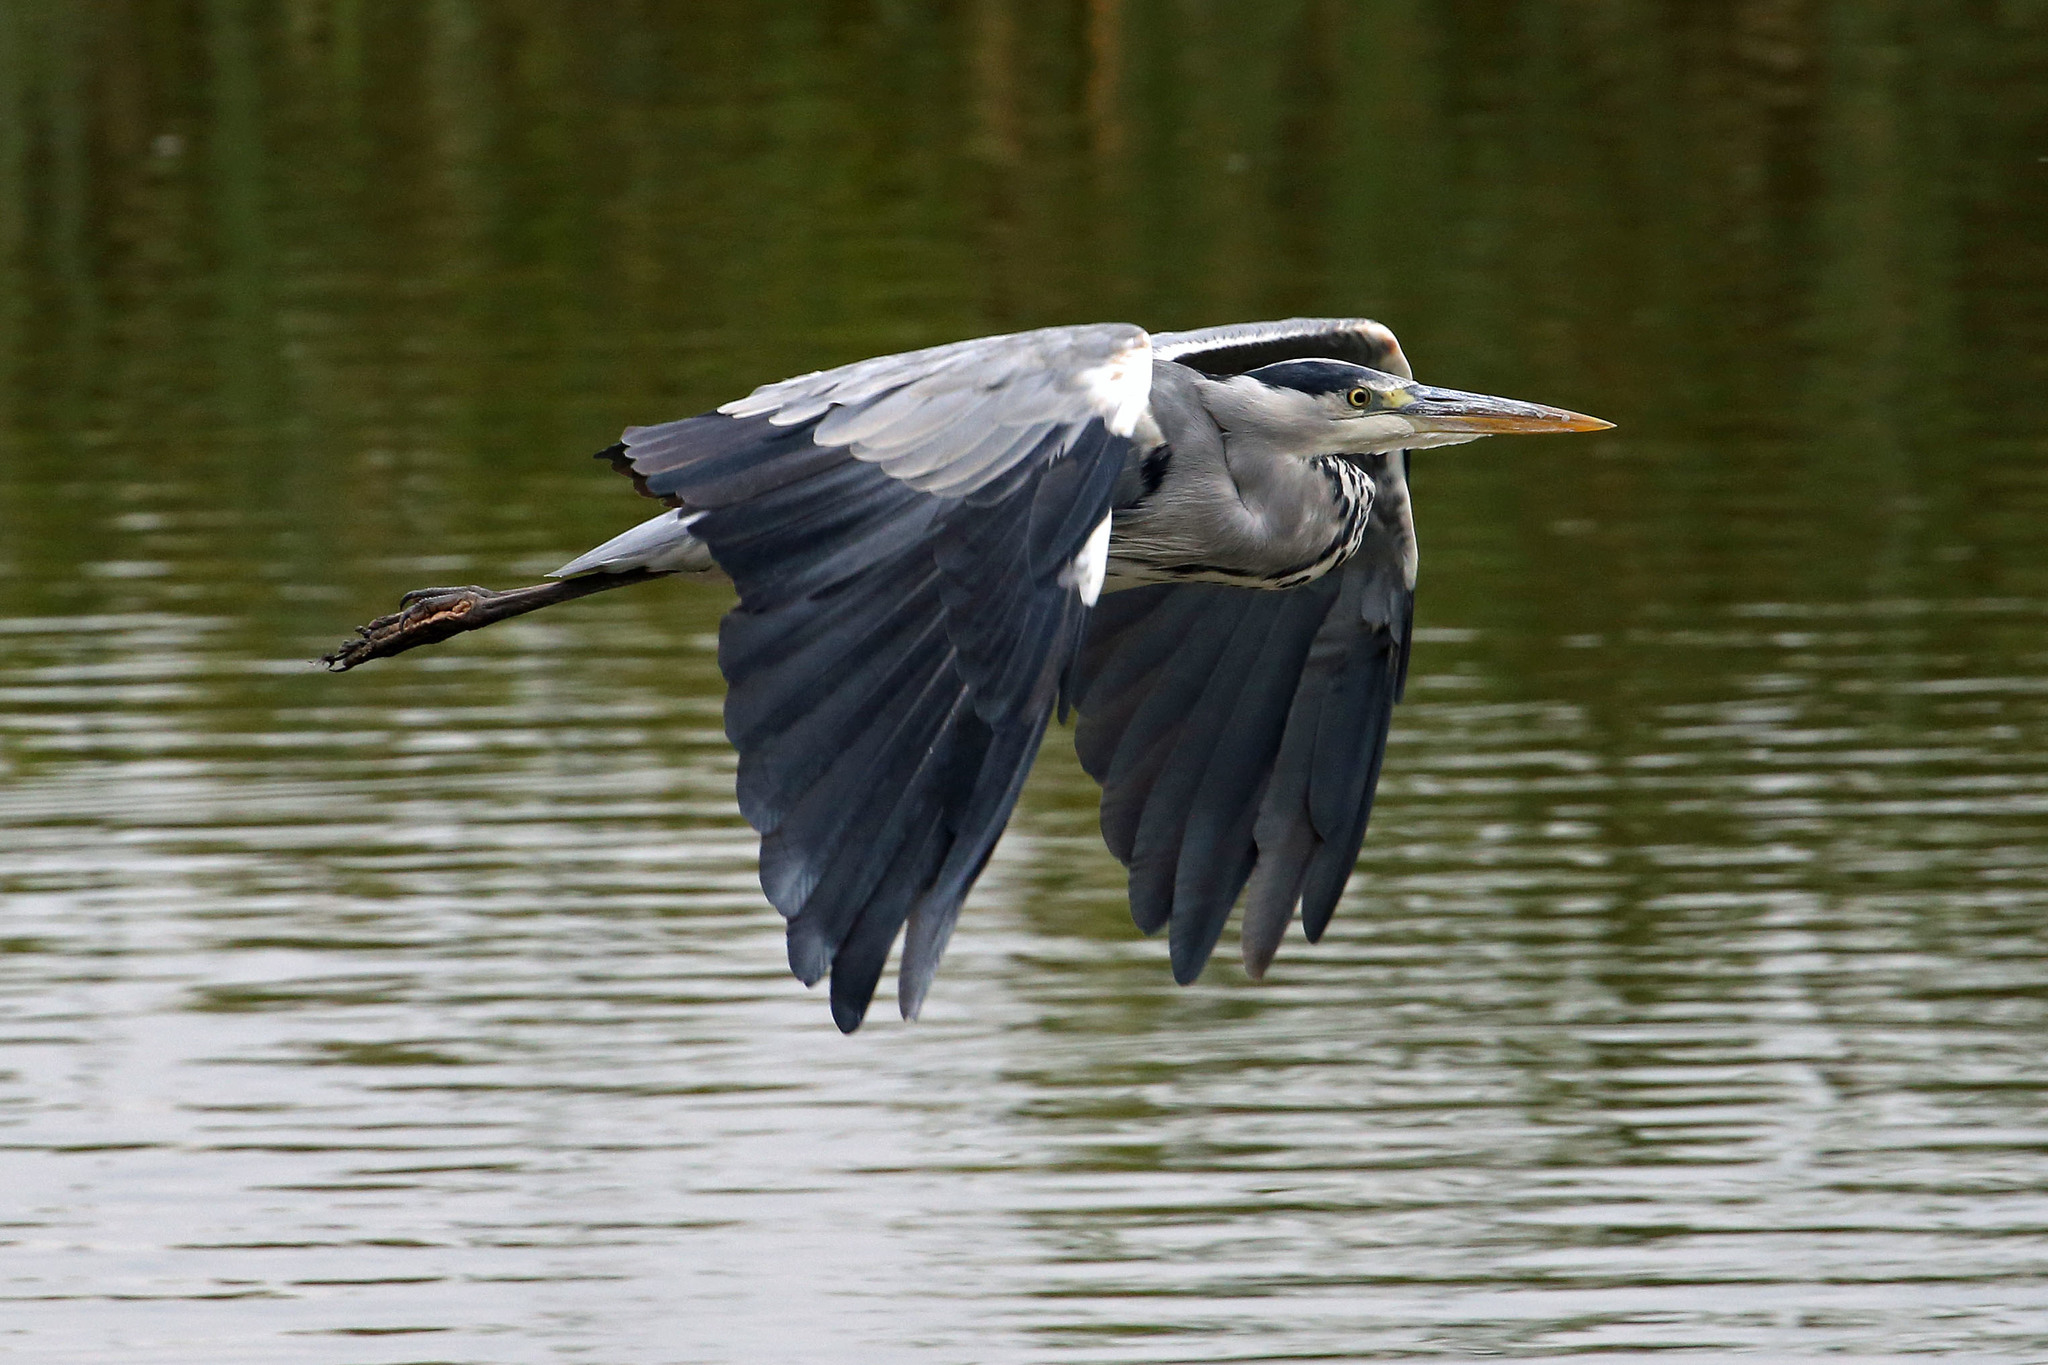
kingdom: Animalia
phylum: Chordata
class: Aves
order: Pelecaniformes
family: Ardeidae
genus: Ardea
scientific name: Ardea cinerea
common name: Grey heron
